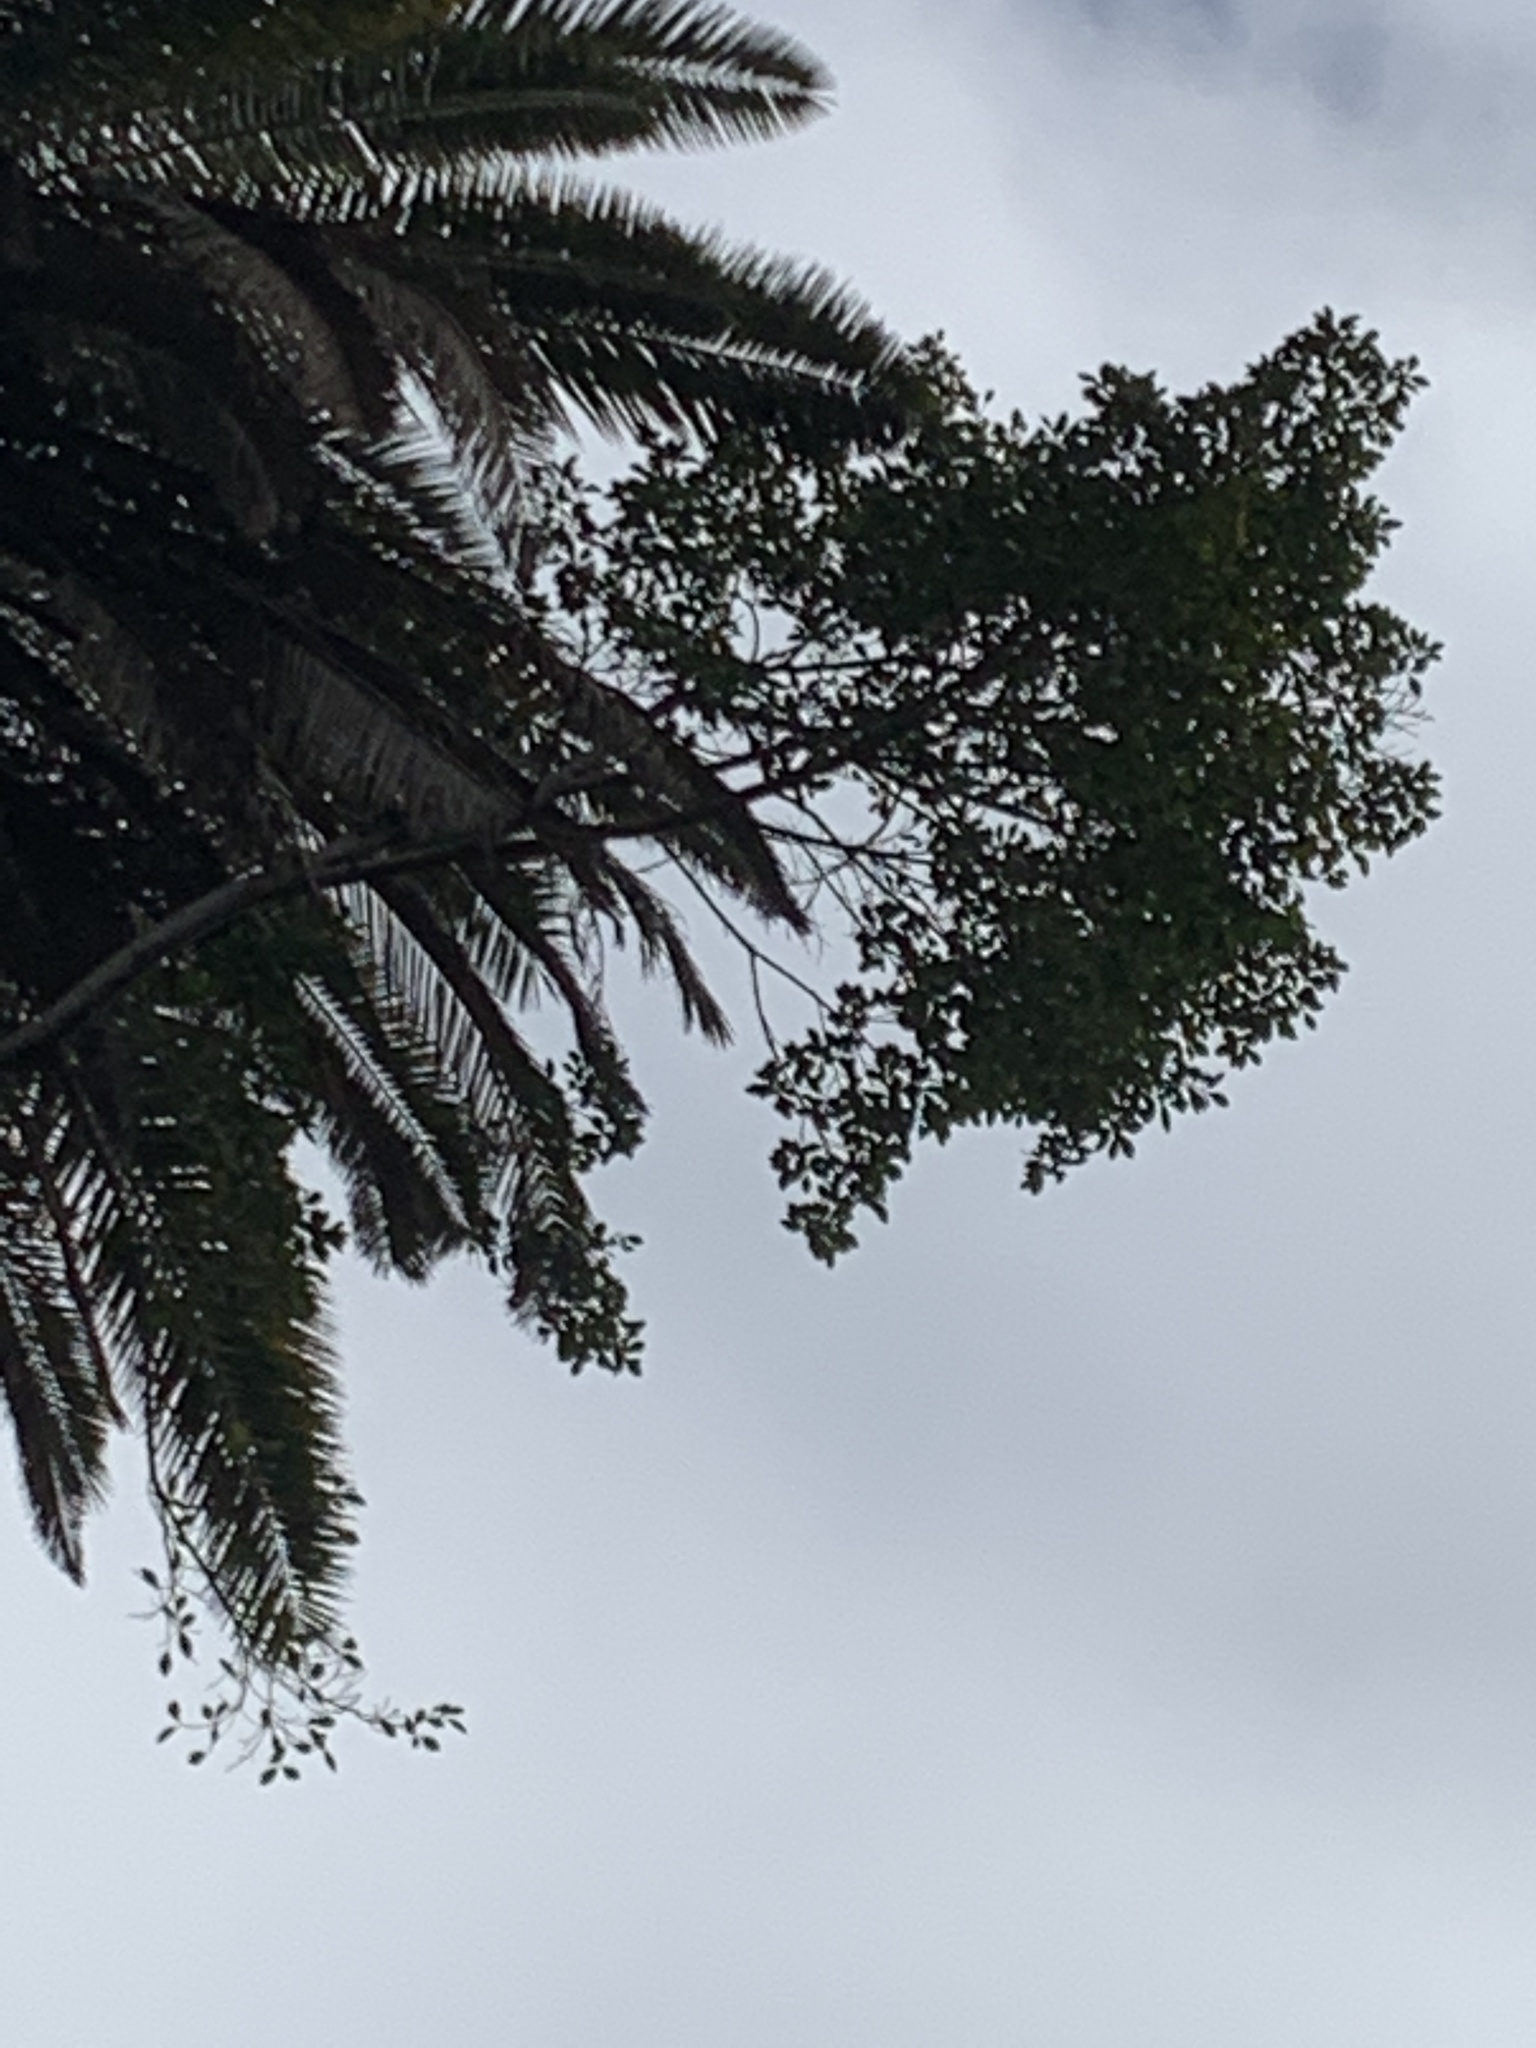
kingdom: Plantae
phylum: Tracheophyta
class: Magnoliopsida
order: Rosales
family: Moraceae
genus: Ficus
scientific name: Ficus luschnathiana
